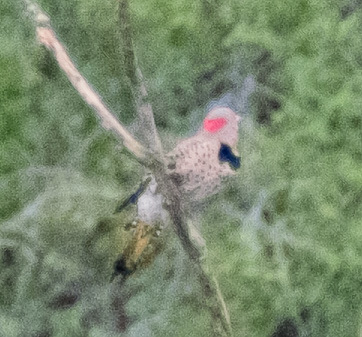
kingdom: Animalia
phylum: Chordata
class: Aves
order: Piciformes
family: Picidae
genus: Colaptes
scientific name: Colaptes auratus
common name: Northern flicker
